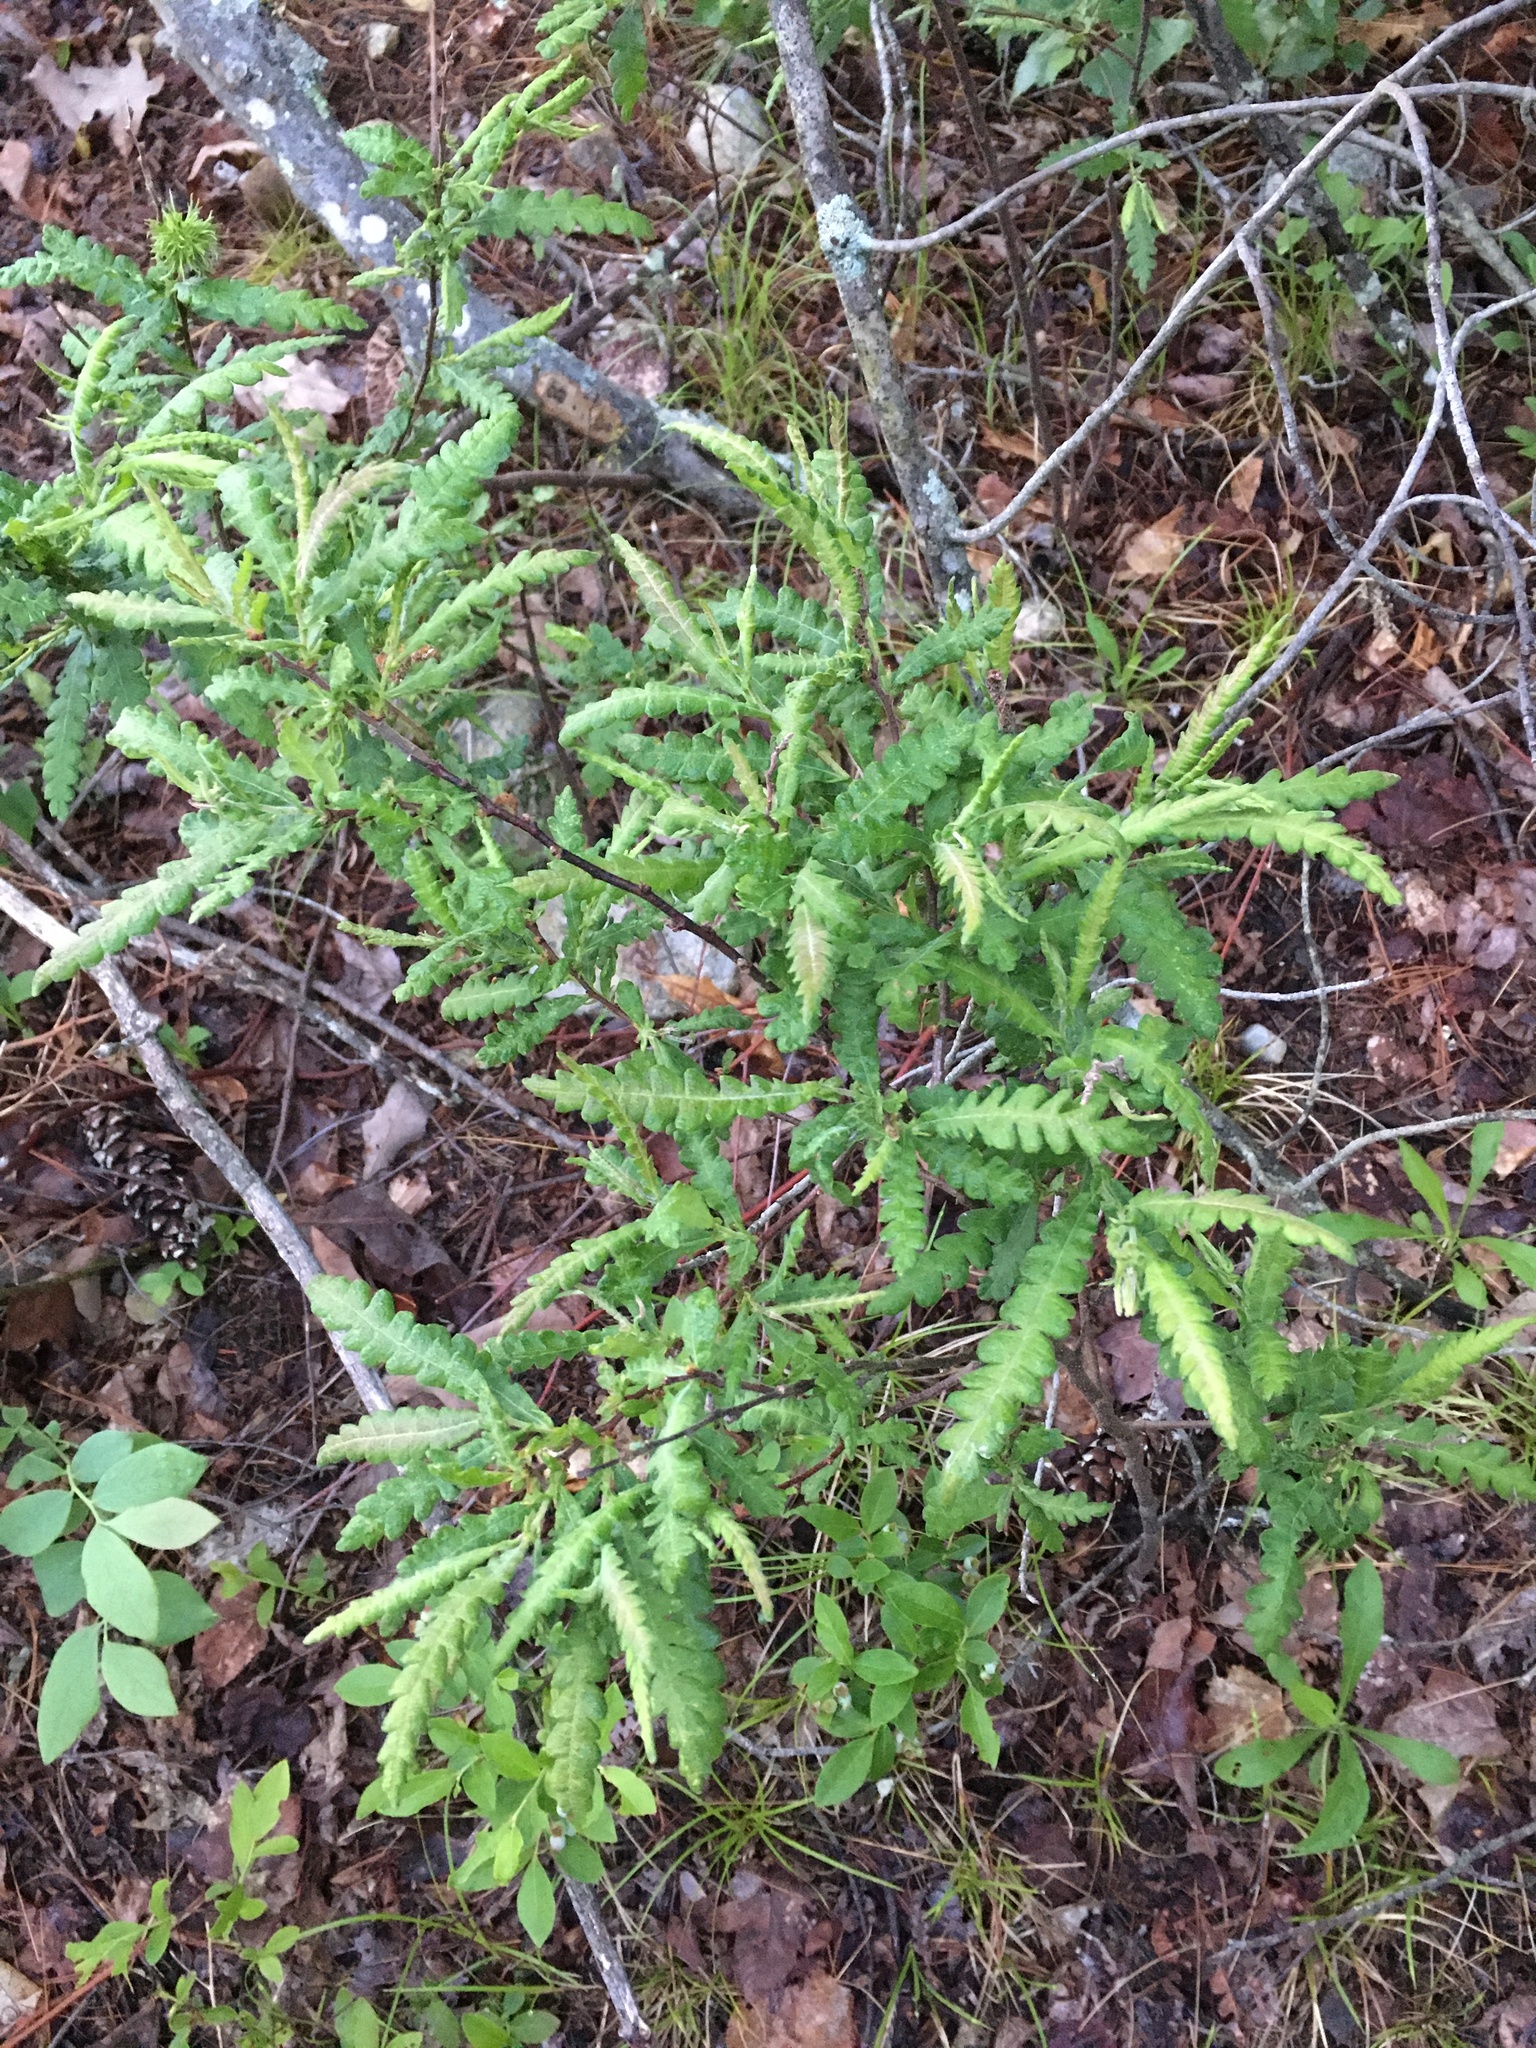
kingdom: Plantae
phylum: Tracheophyta
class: Magnoliopsida
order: Fagales
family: Myricaceae
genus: Comptonia
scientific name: Comptonia peregrina
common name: Sweet-fern
